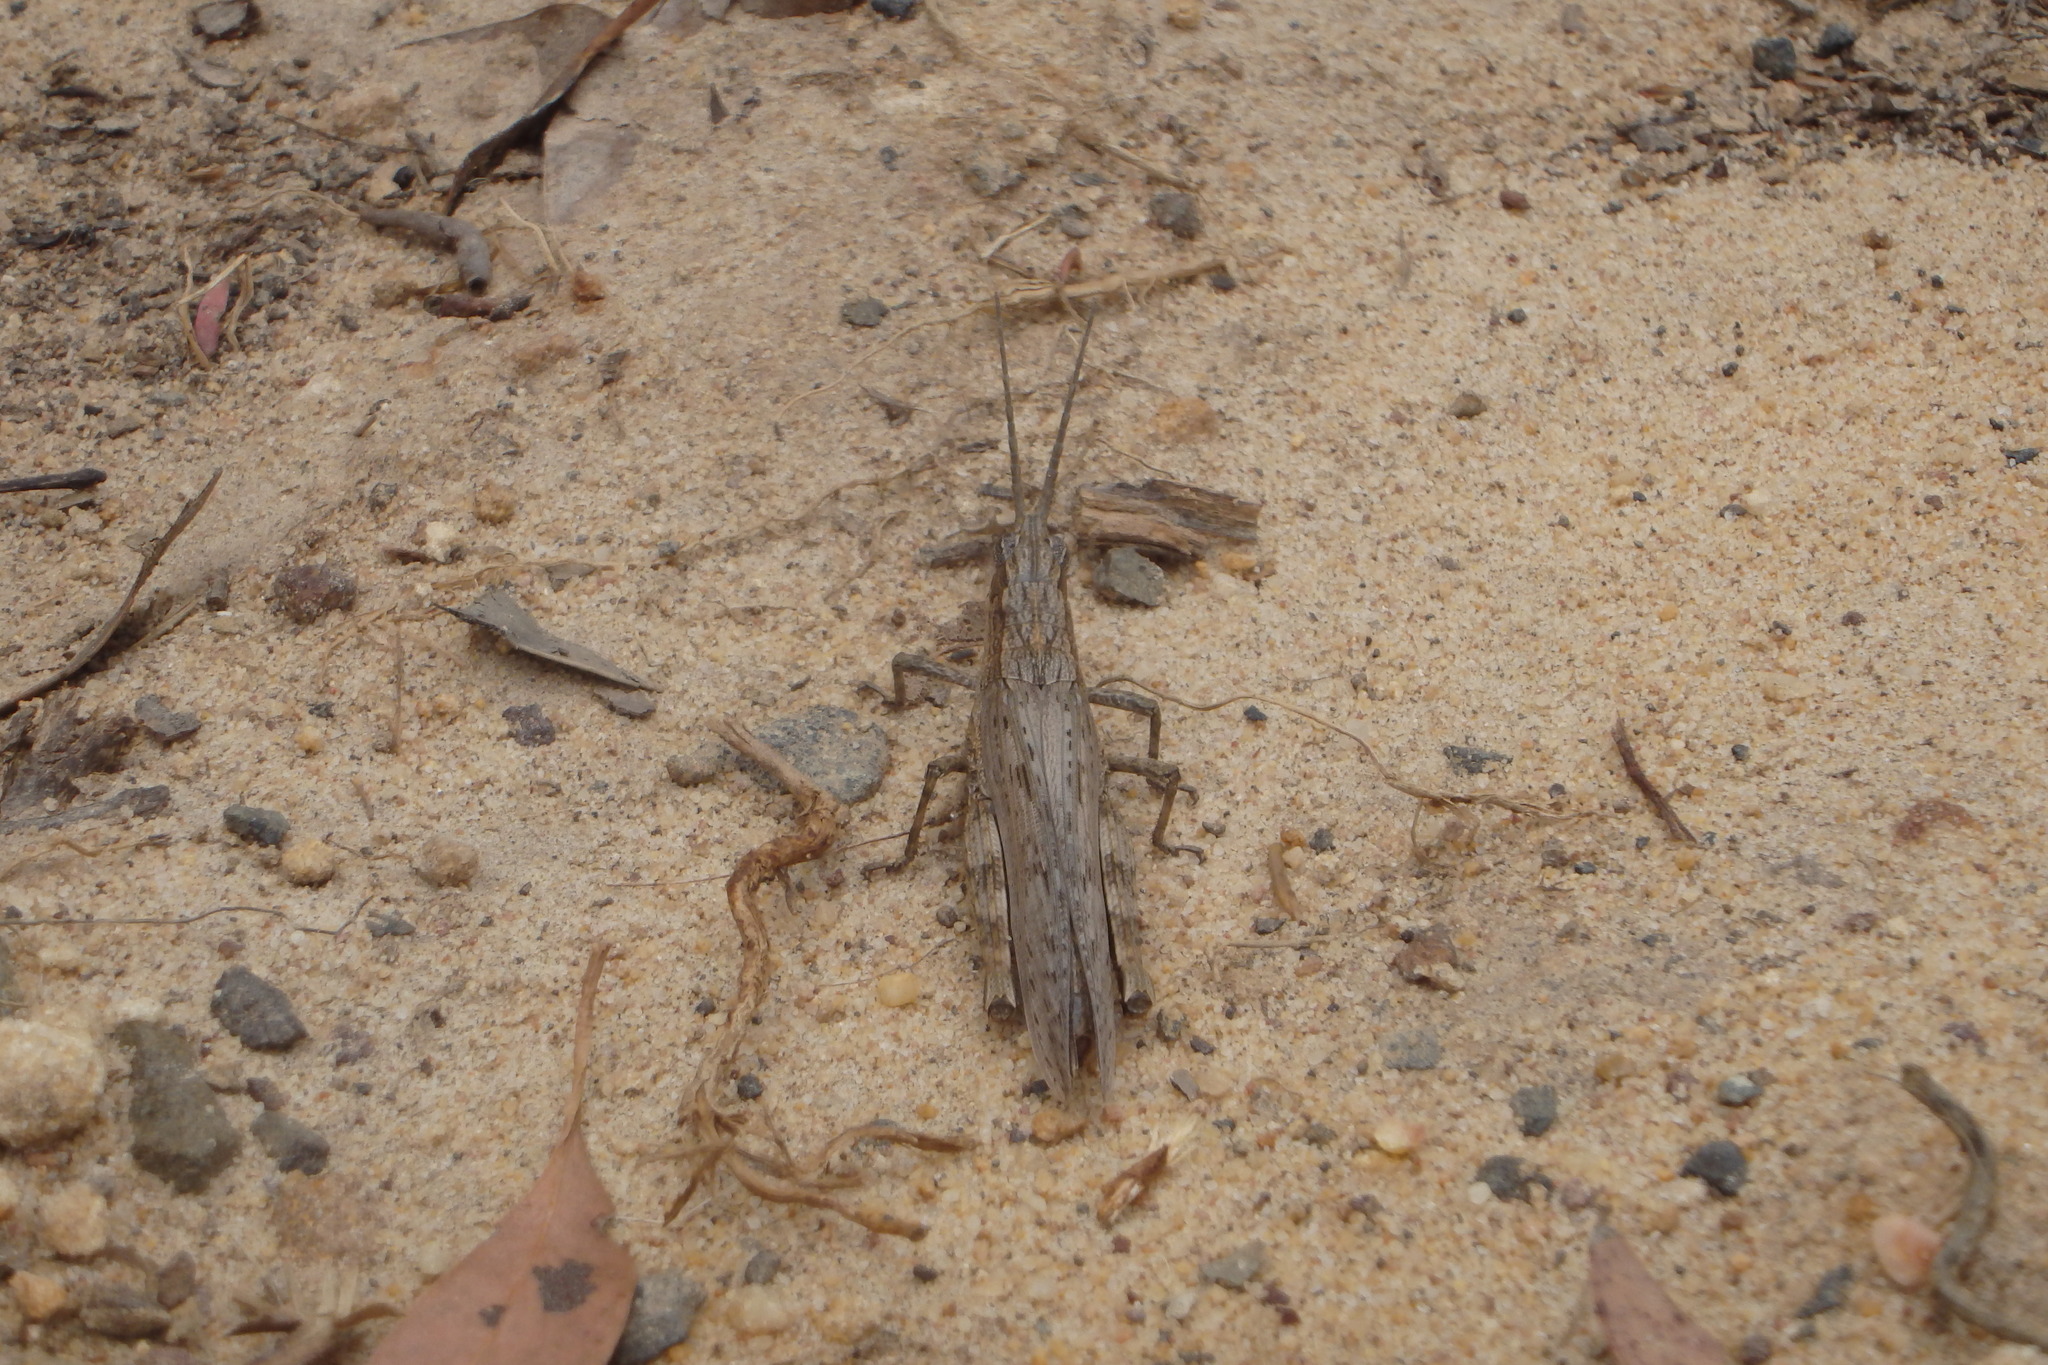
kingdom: Animalia
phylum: Arthropoda
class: Insecta
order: Orthoptera
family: Acrididae
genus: Coryphistes
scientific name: Coryphistes ruricola
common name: Bark-mimicking grasshopper
